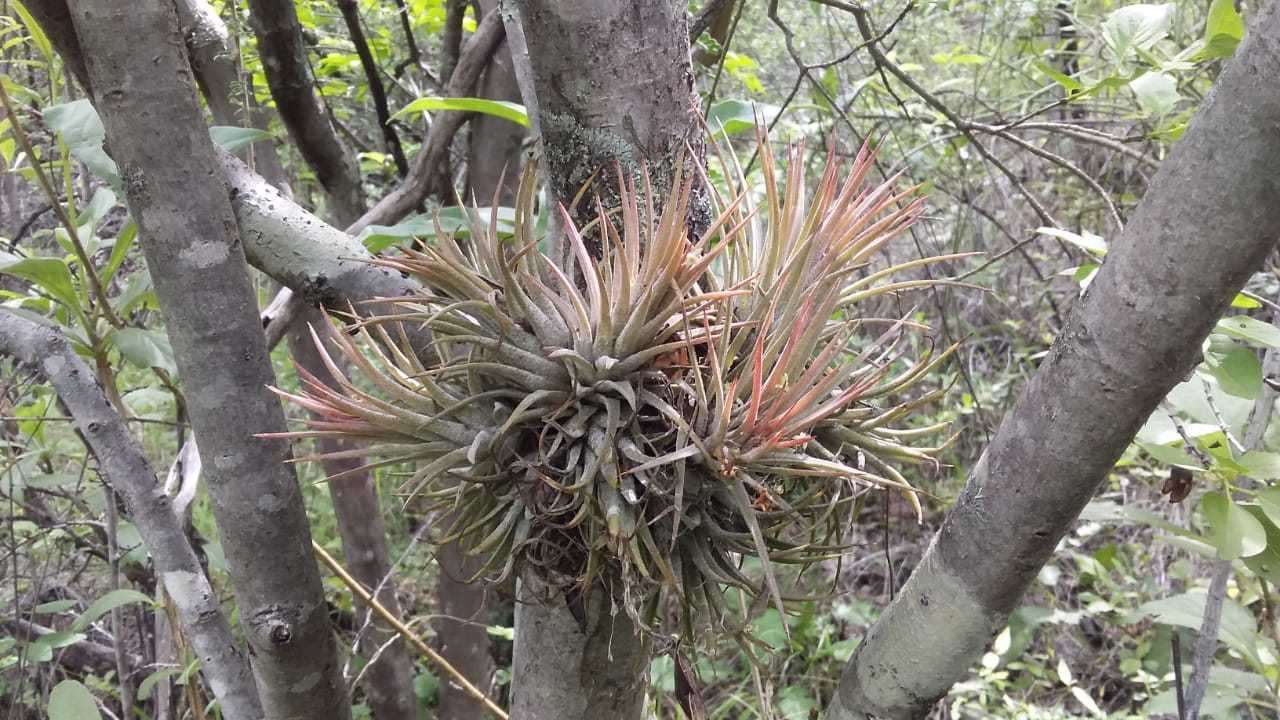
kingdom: Plantae
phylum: Tracheophyta
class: Liliopsida
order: Poales
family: Bromeliaceae
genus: Tillandsia
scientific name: Tillandsia ionantha
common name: Sky plant
